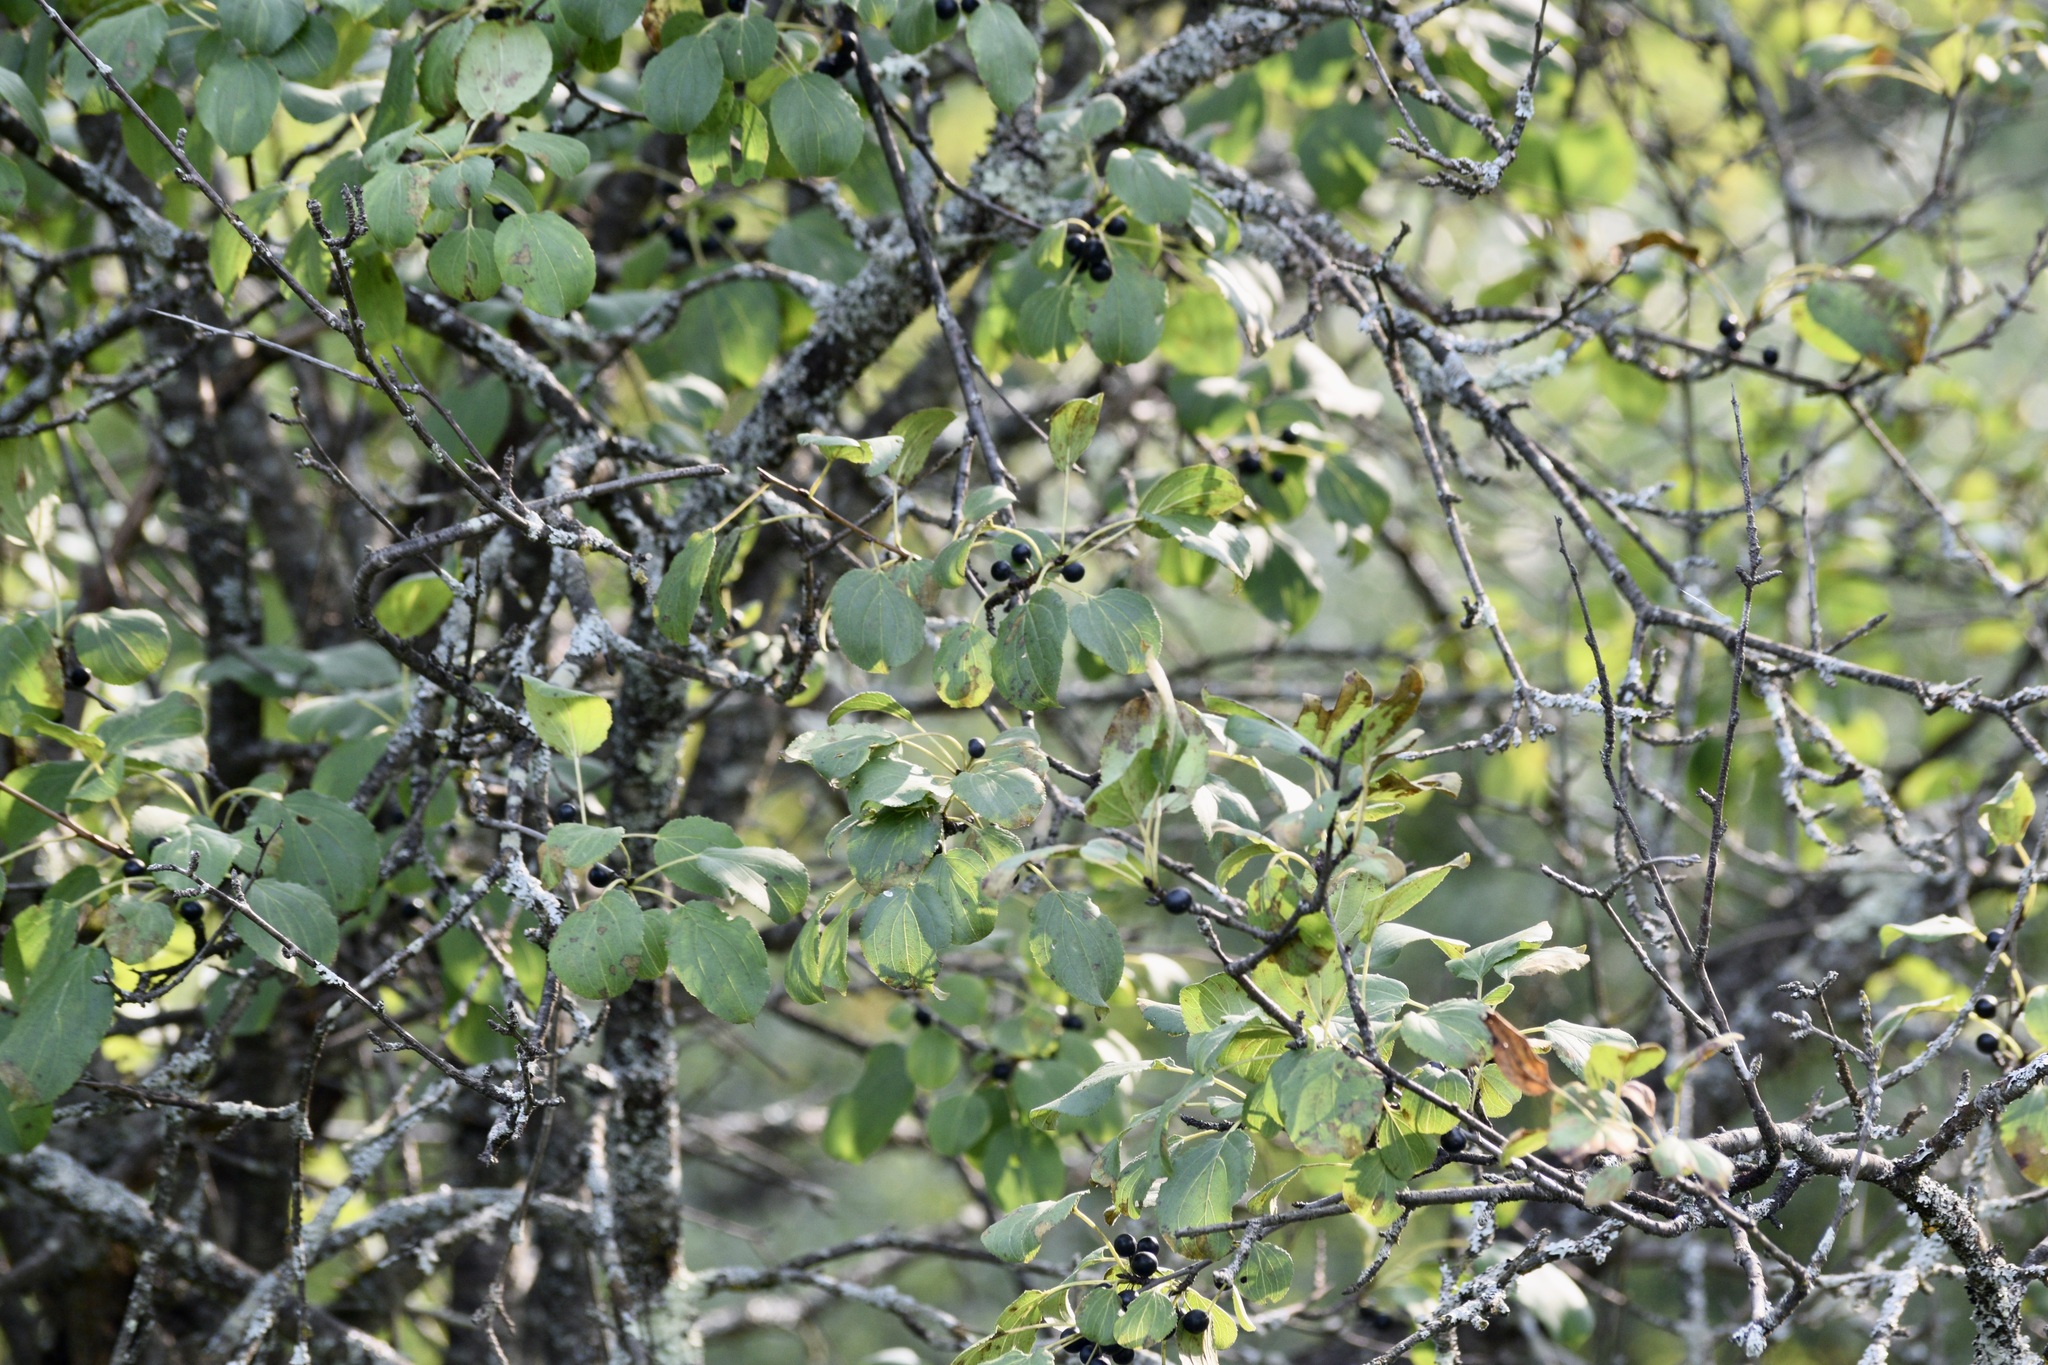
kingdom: Plantae
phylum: Tracheophyta
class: Magnoliopsida
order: Rosales
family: Rhamnaceae
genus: Rhamnus
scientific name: Rhamnus cathartica
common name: Common buckthorn
